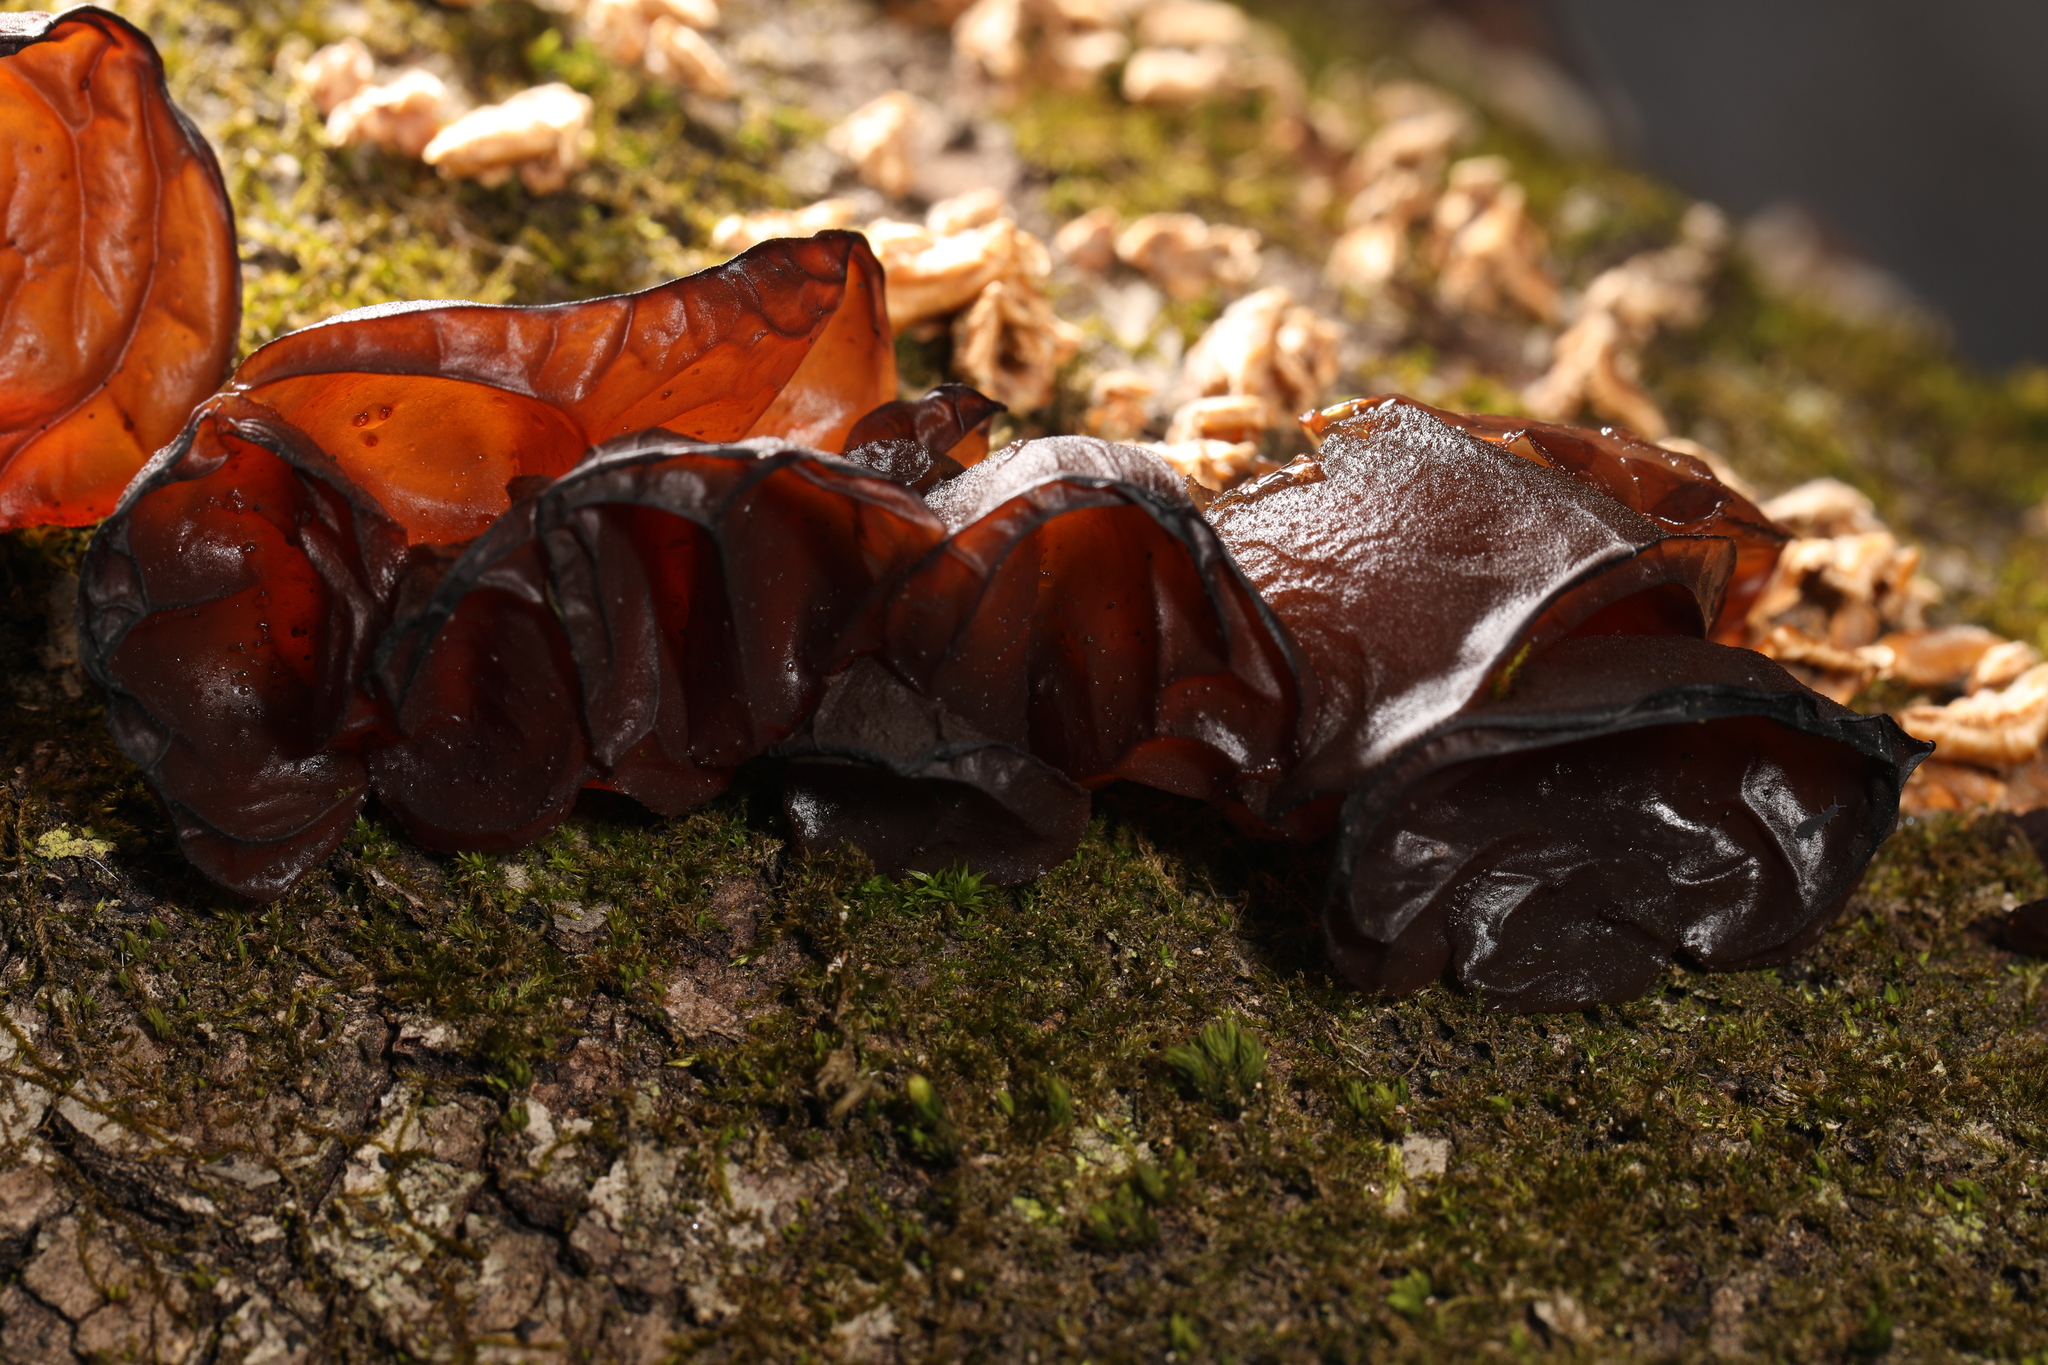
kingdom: Fungi
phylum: Basidiomycota
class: Agaricomycetes
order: Auriculariales
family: Auriculariaceae
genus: Exidia
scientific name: Exidia recisa
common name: Amber jelly
